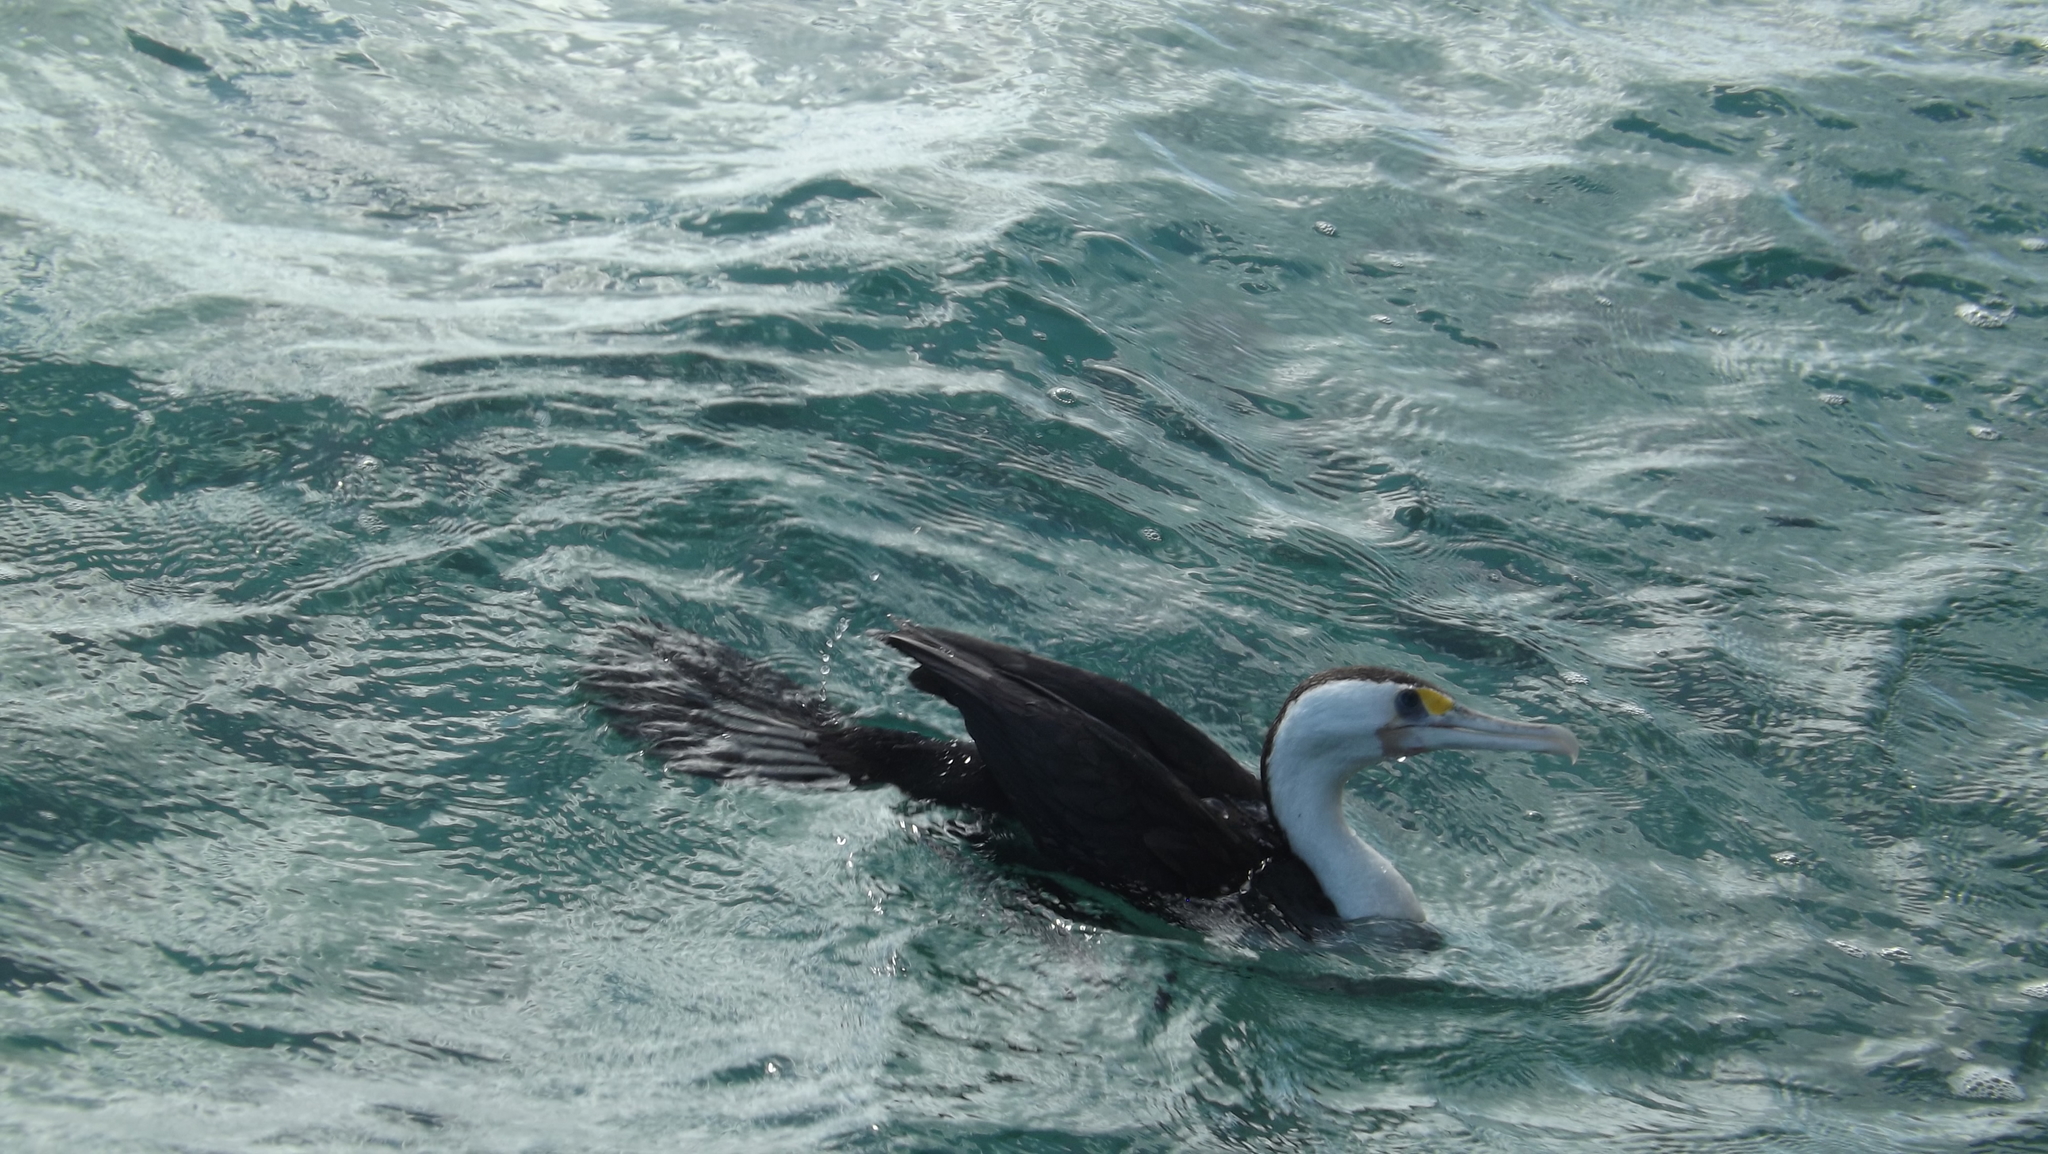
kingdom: Animalia
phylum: Chordata
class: Aves
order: Suliformes
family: Phalacrocoracidae
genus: Phalacrocorax
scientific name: Phalacrocorax varius
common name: Pied cormorant
